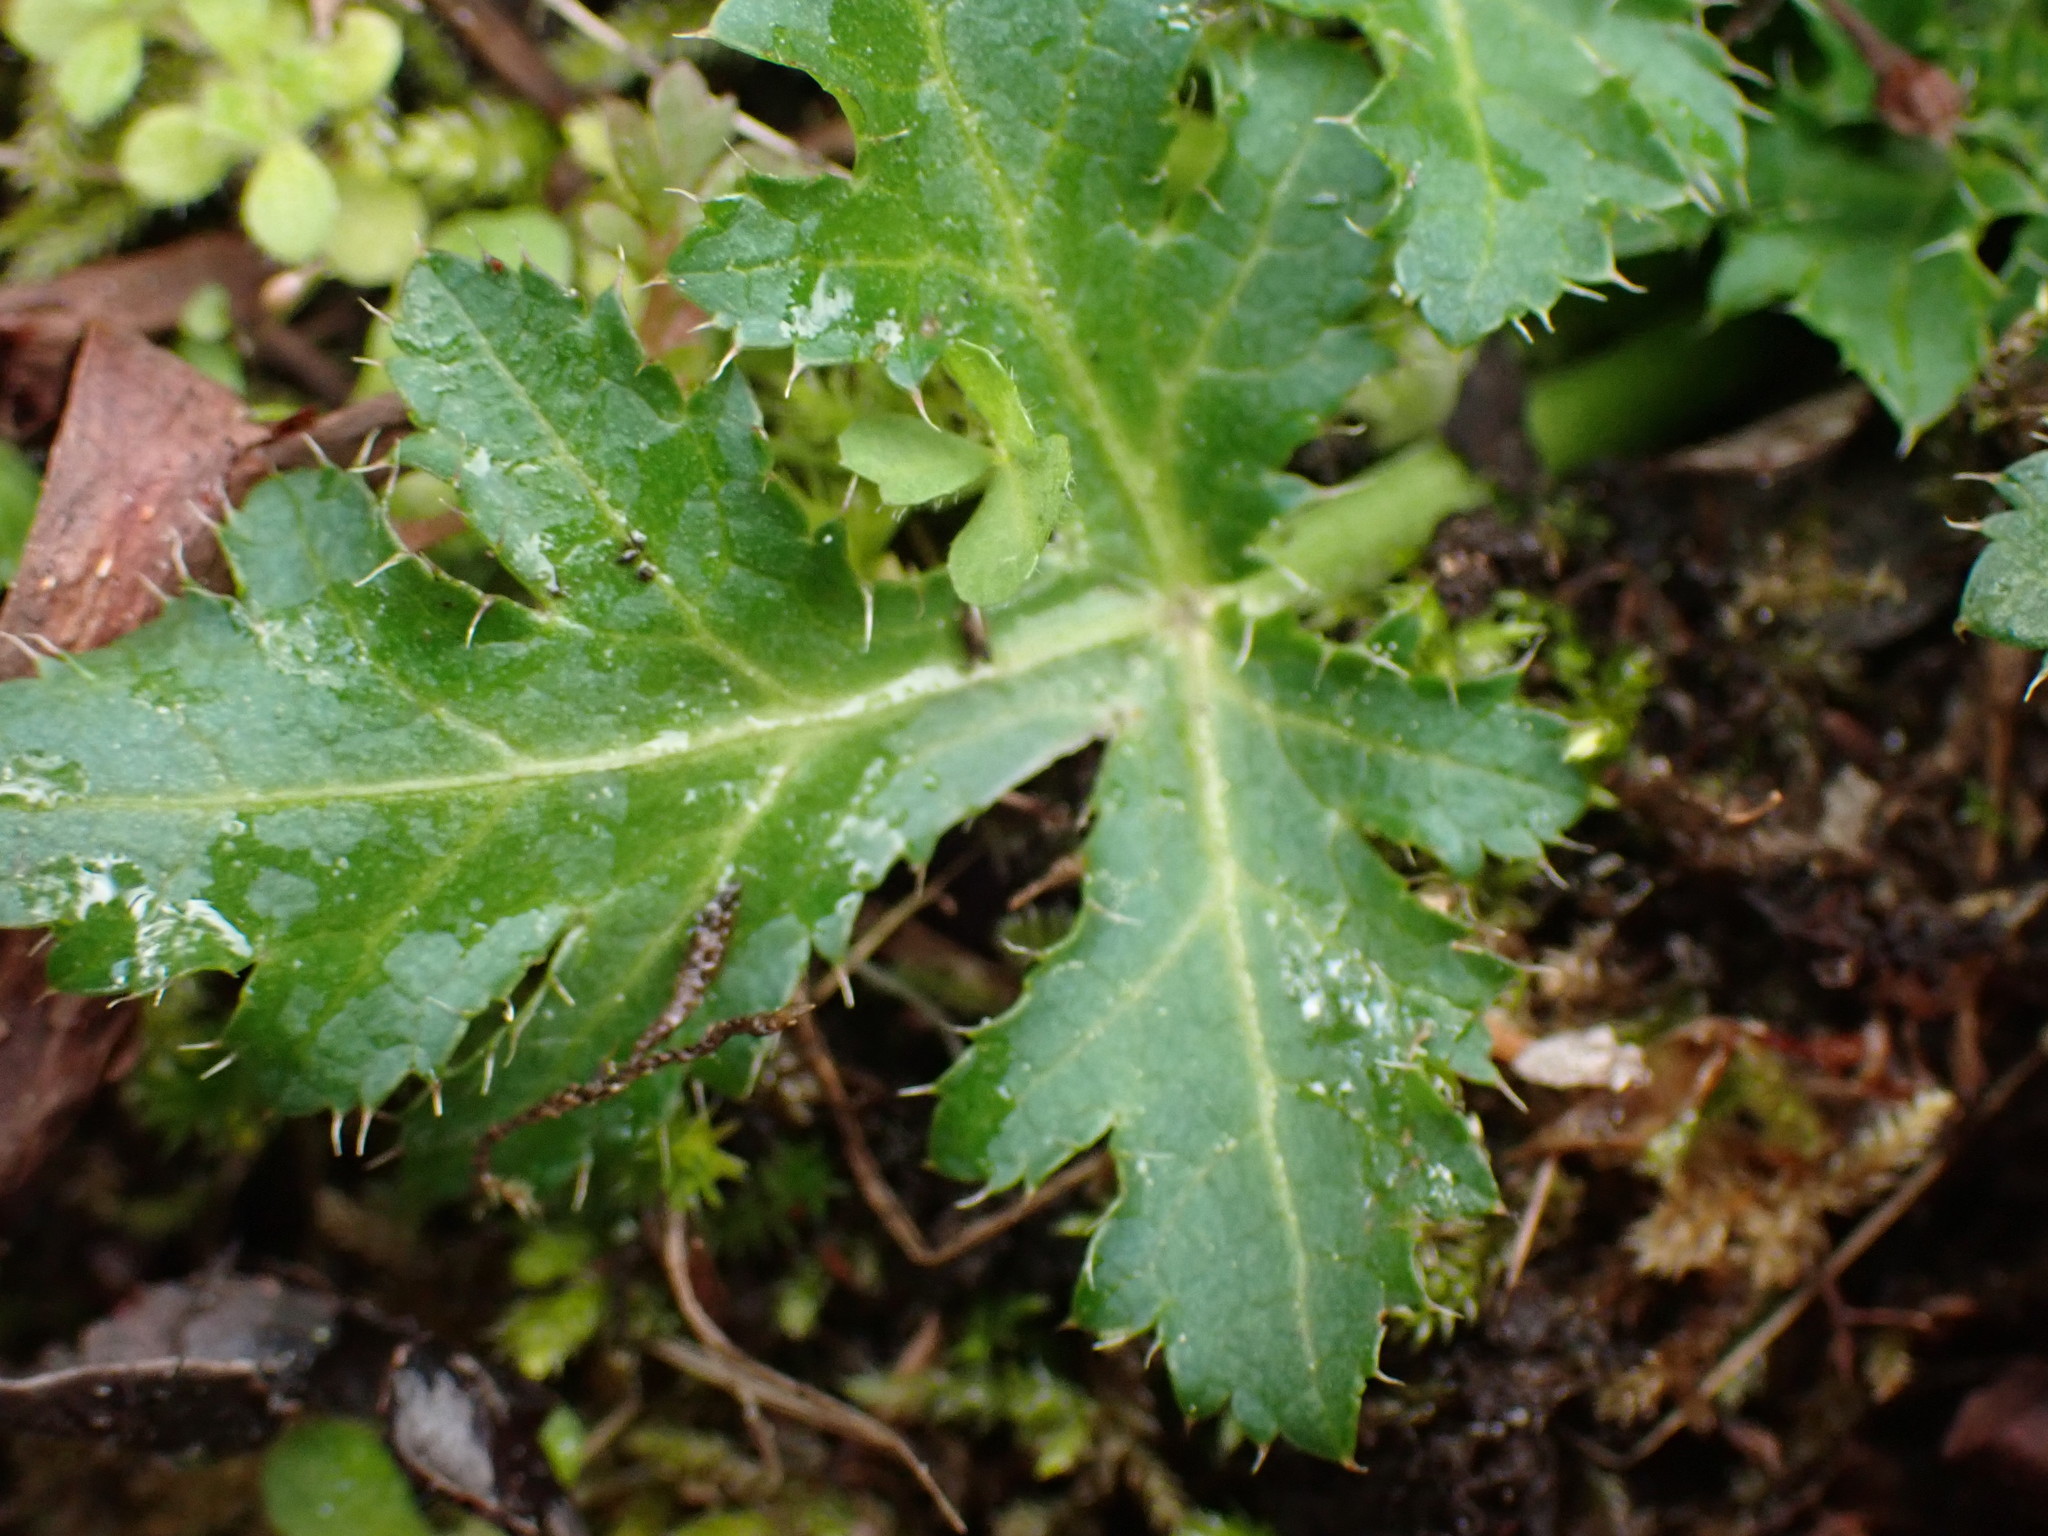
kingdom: Plantae
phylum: Tracheophyta
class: Magnoliopsida
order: Apiales
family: Apiaceae
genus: Sanicula
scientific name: Sanicula crassicaulis
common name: Western snakeroot
